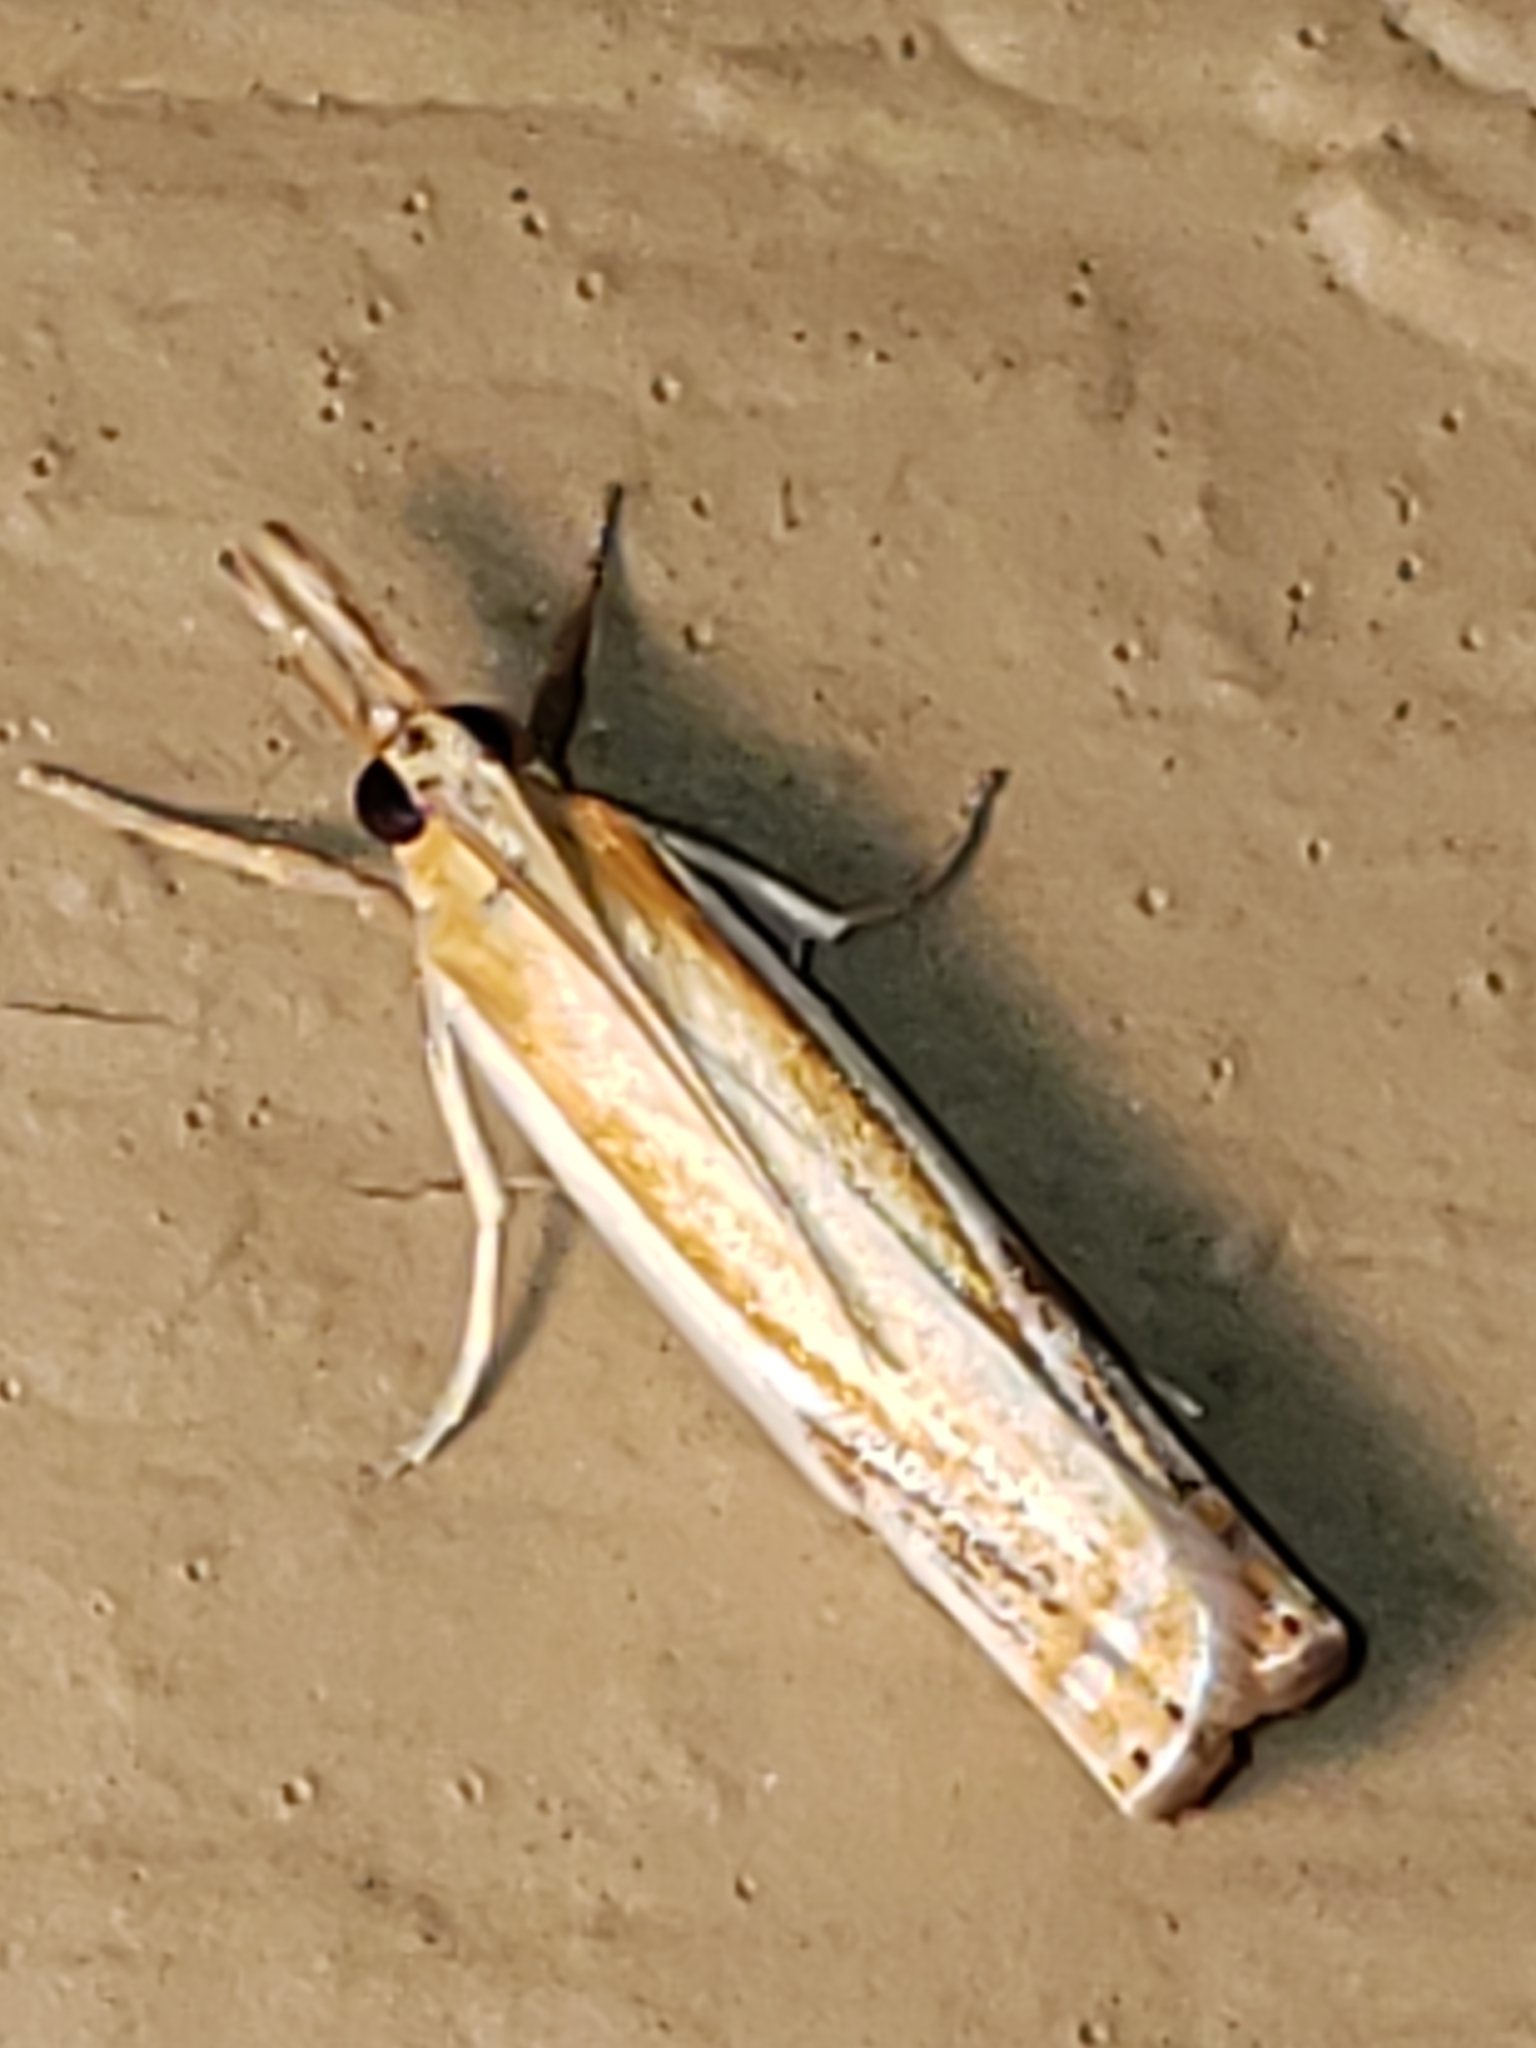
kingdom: Animalia
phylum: Arthropoda
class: Insecta
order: Lepidoptera
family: Crambidae
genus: Crambus
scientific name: Crambus
